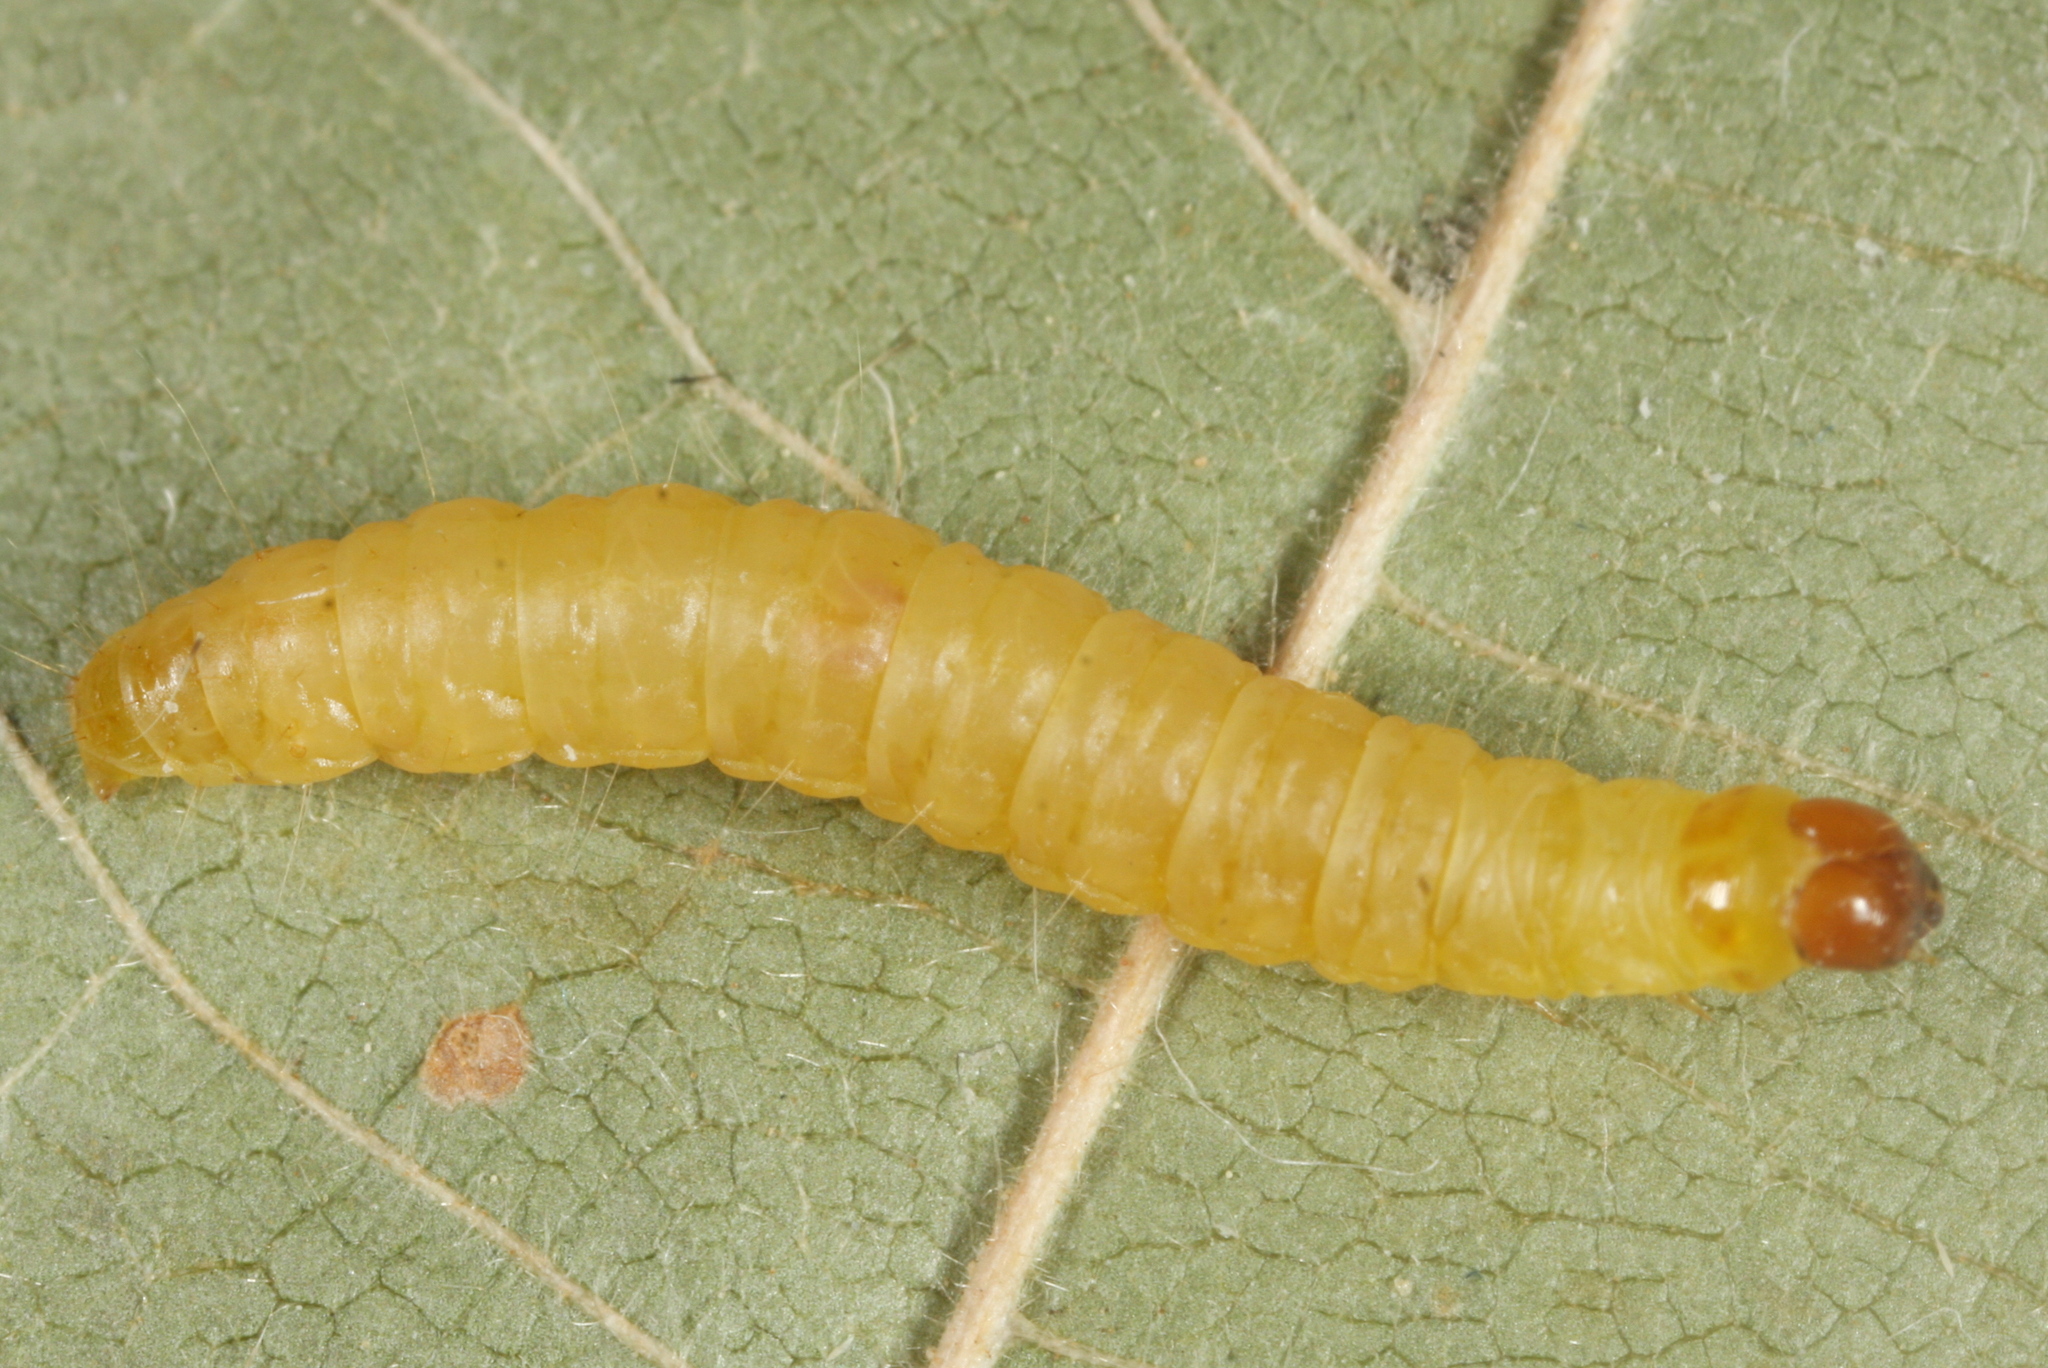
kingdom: Animalia
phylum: Arthropoda
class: Insecta
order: Lepidoptera
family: Pyralidae
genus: Plodia
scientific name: Plodia interpunctella
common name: Indian meal moth
